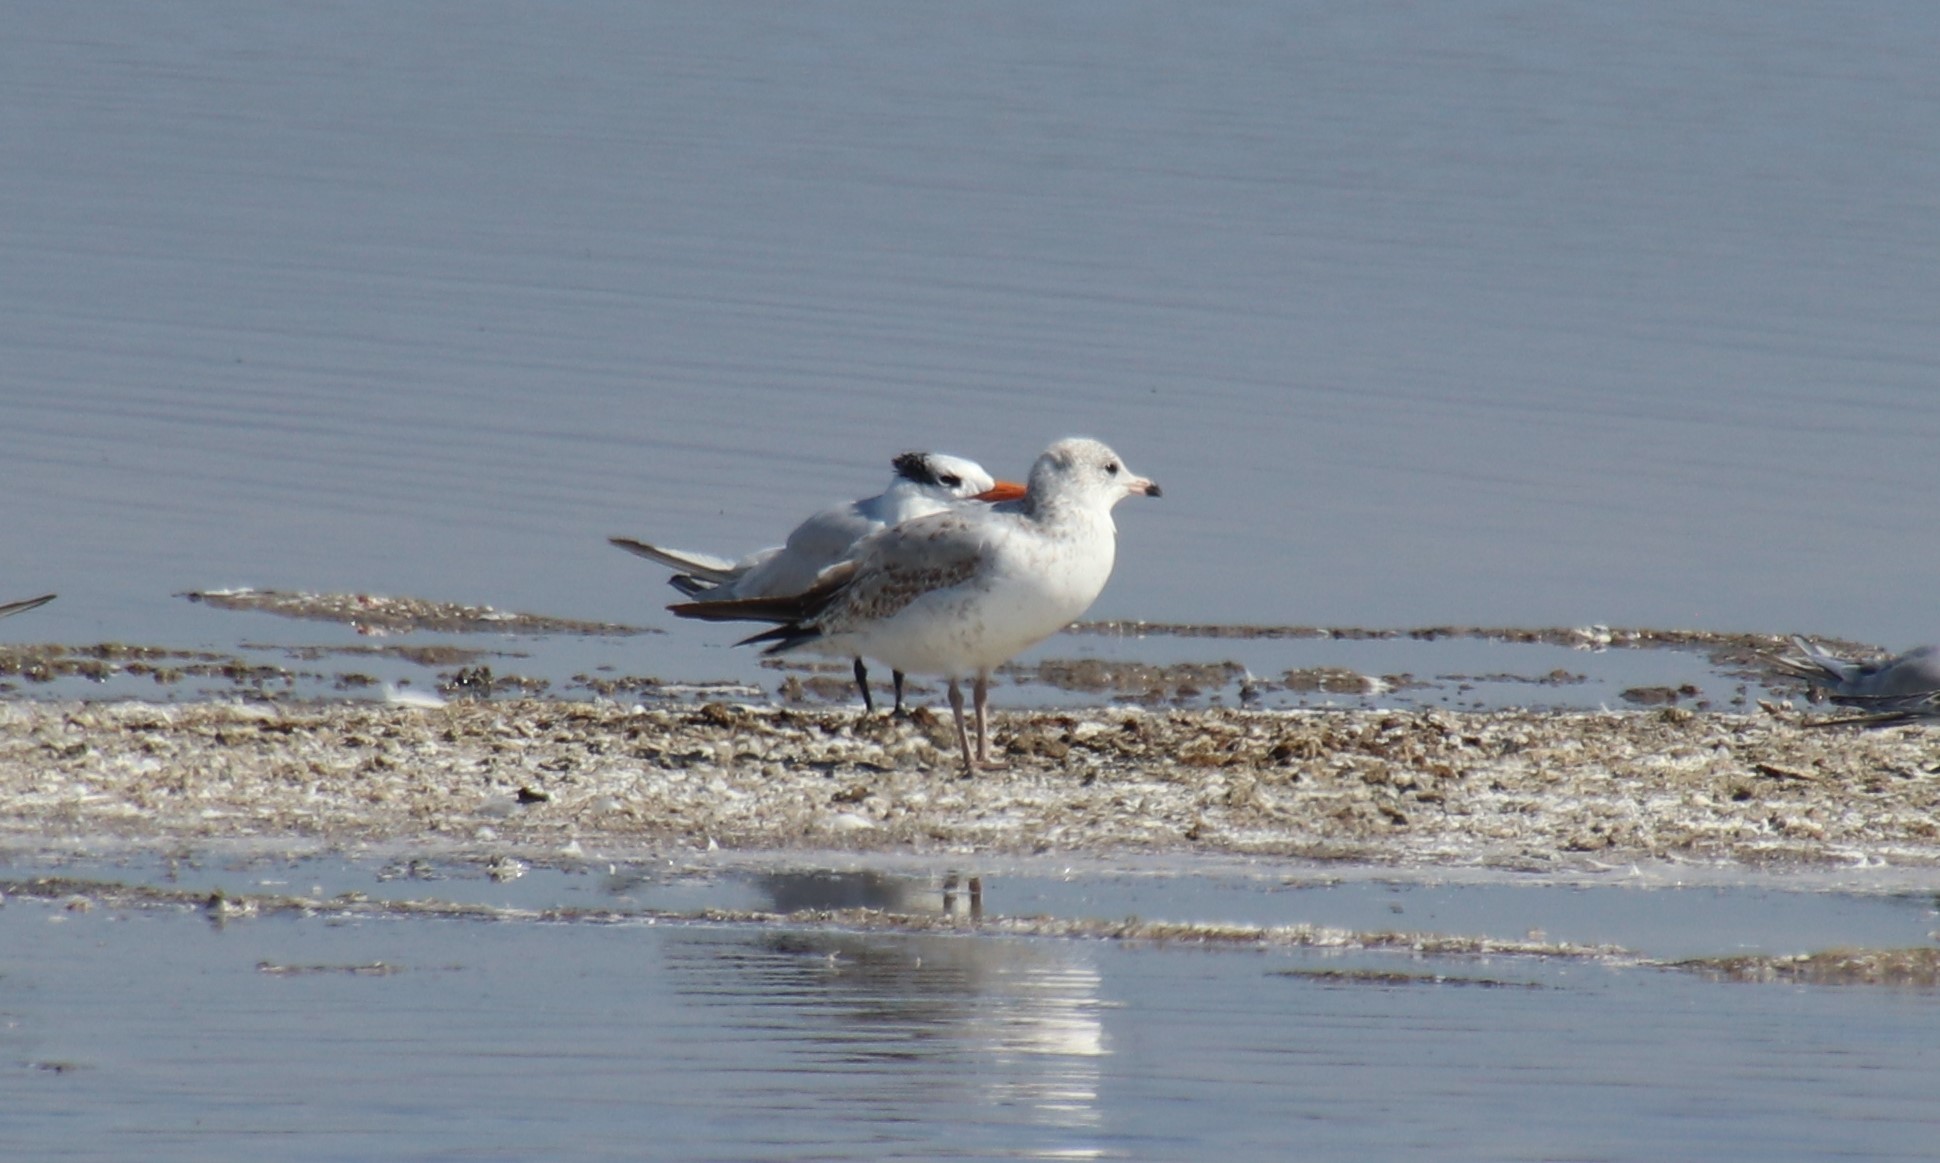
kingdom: Animalia
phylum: Chordata
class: Aves
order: Charadriiformes
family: Laridae
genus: Larus
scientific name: Larus delawarensis
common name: Ring-billed gull
